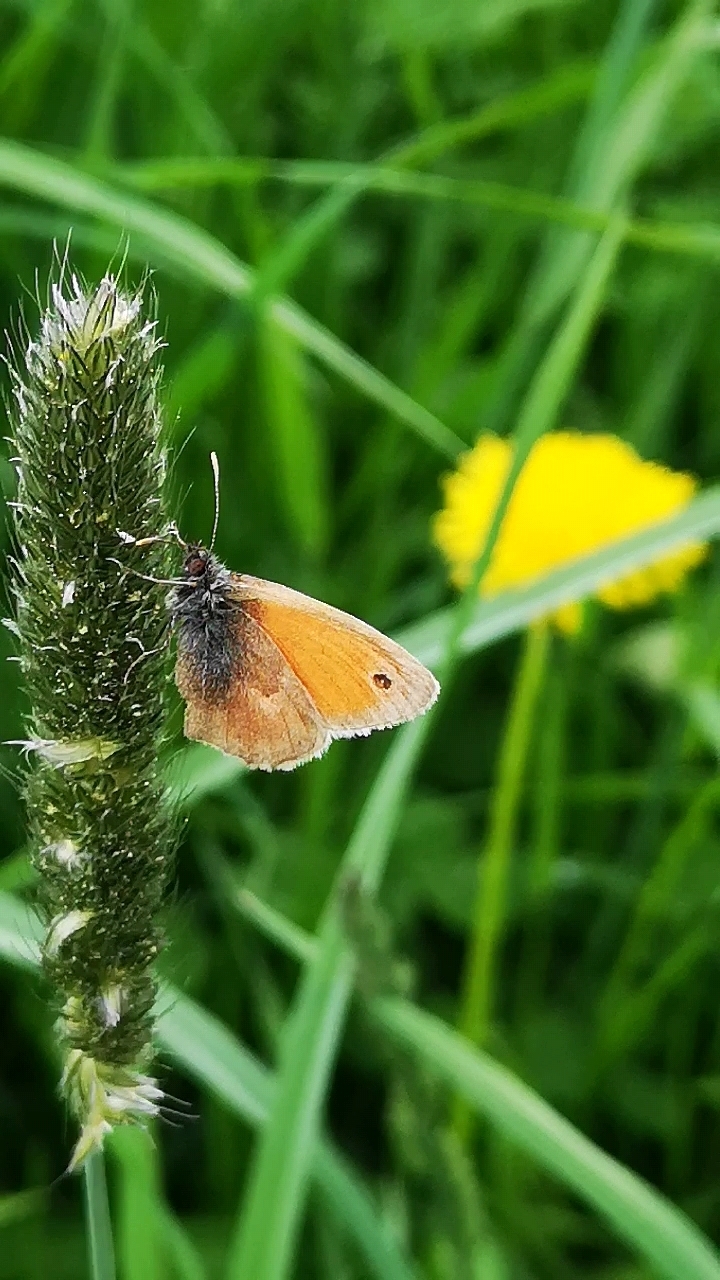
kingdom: Animalia
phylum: Arthropoda
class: Insecta
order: Lepidoptera
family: Nymphalidae
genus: Coenonympha
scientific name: Coenonympha pamphilus
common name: Small heath
